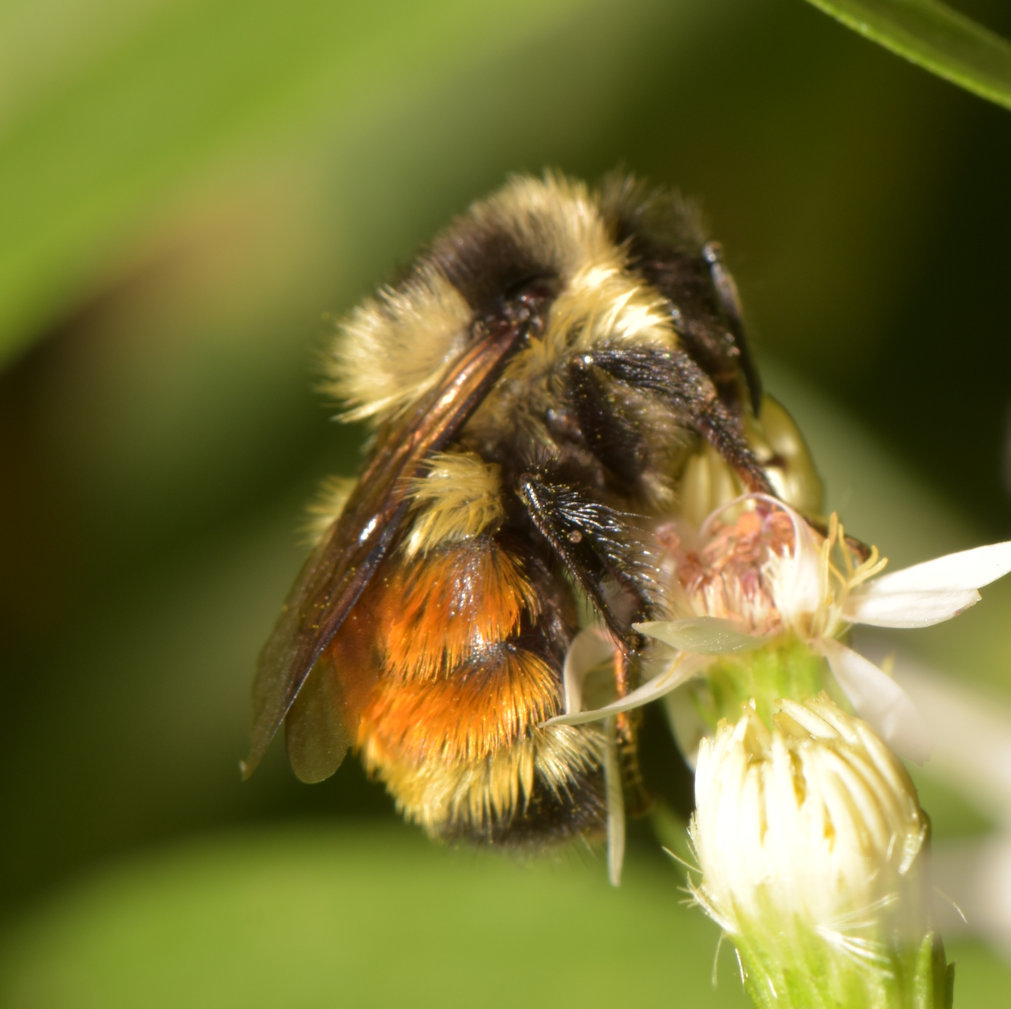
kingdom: Animalia
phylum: Arthropoda
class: Insecta
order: Hymenoptera
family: Apidae
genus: Bombus
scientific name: Bombus ternarius
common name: Tri-colored bumble bee
